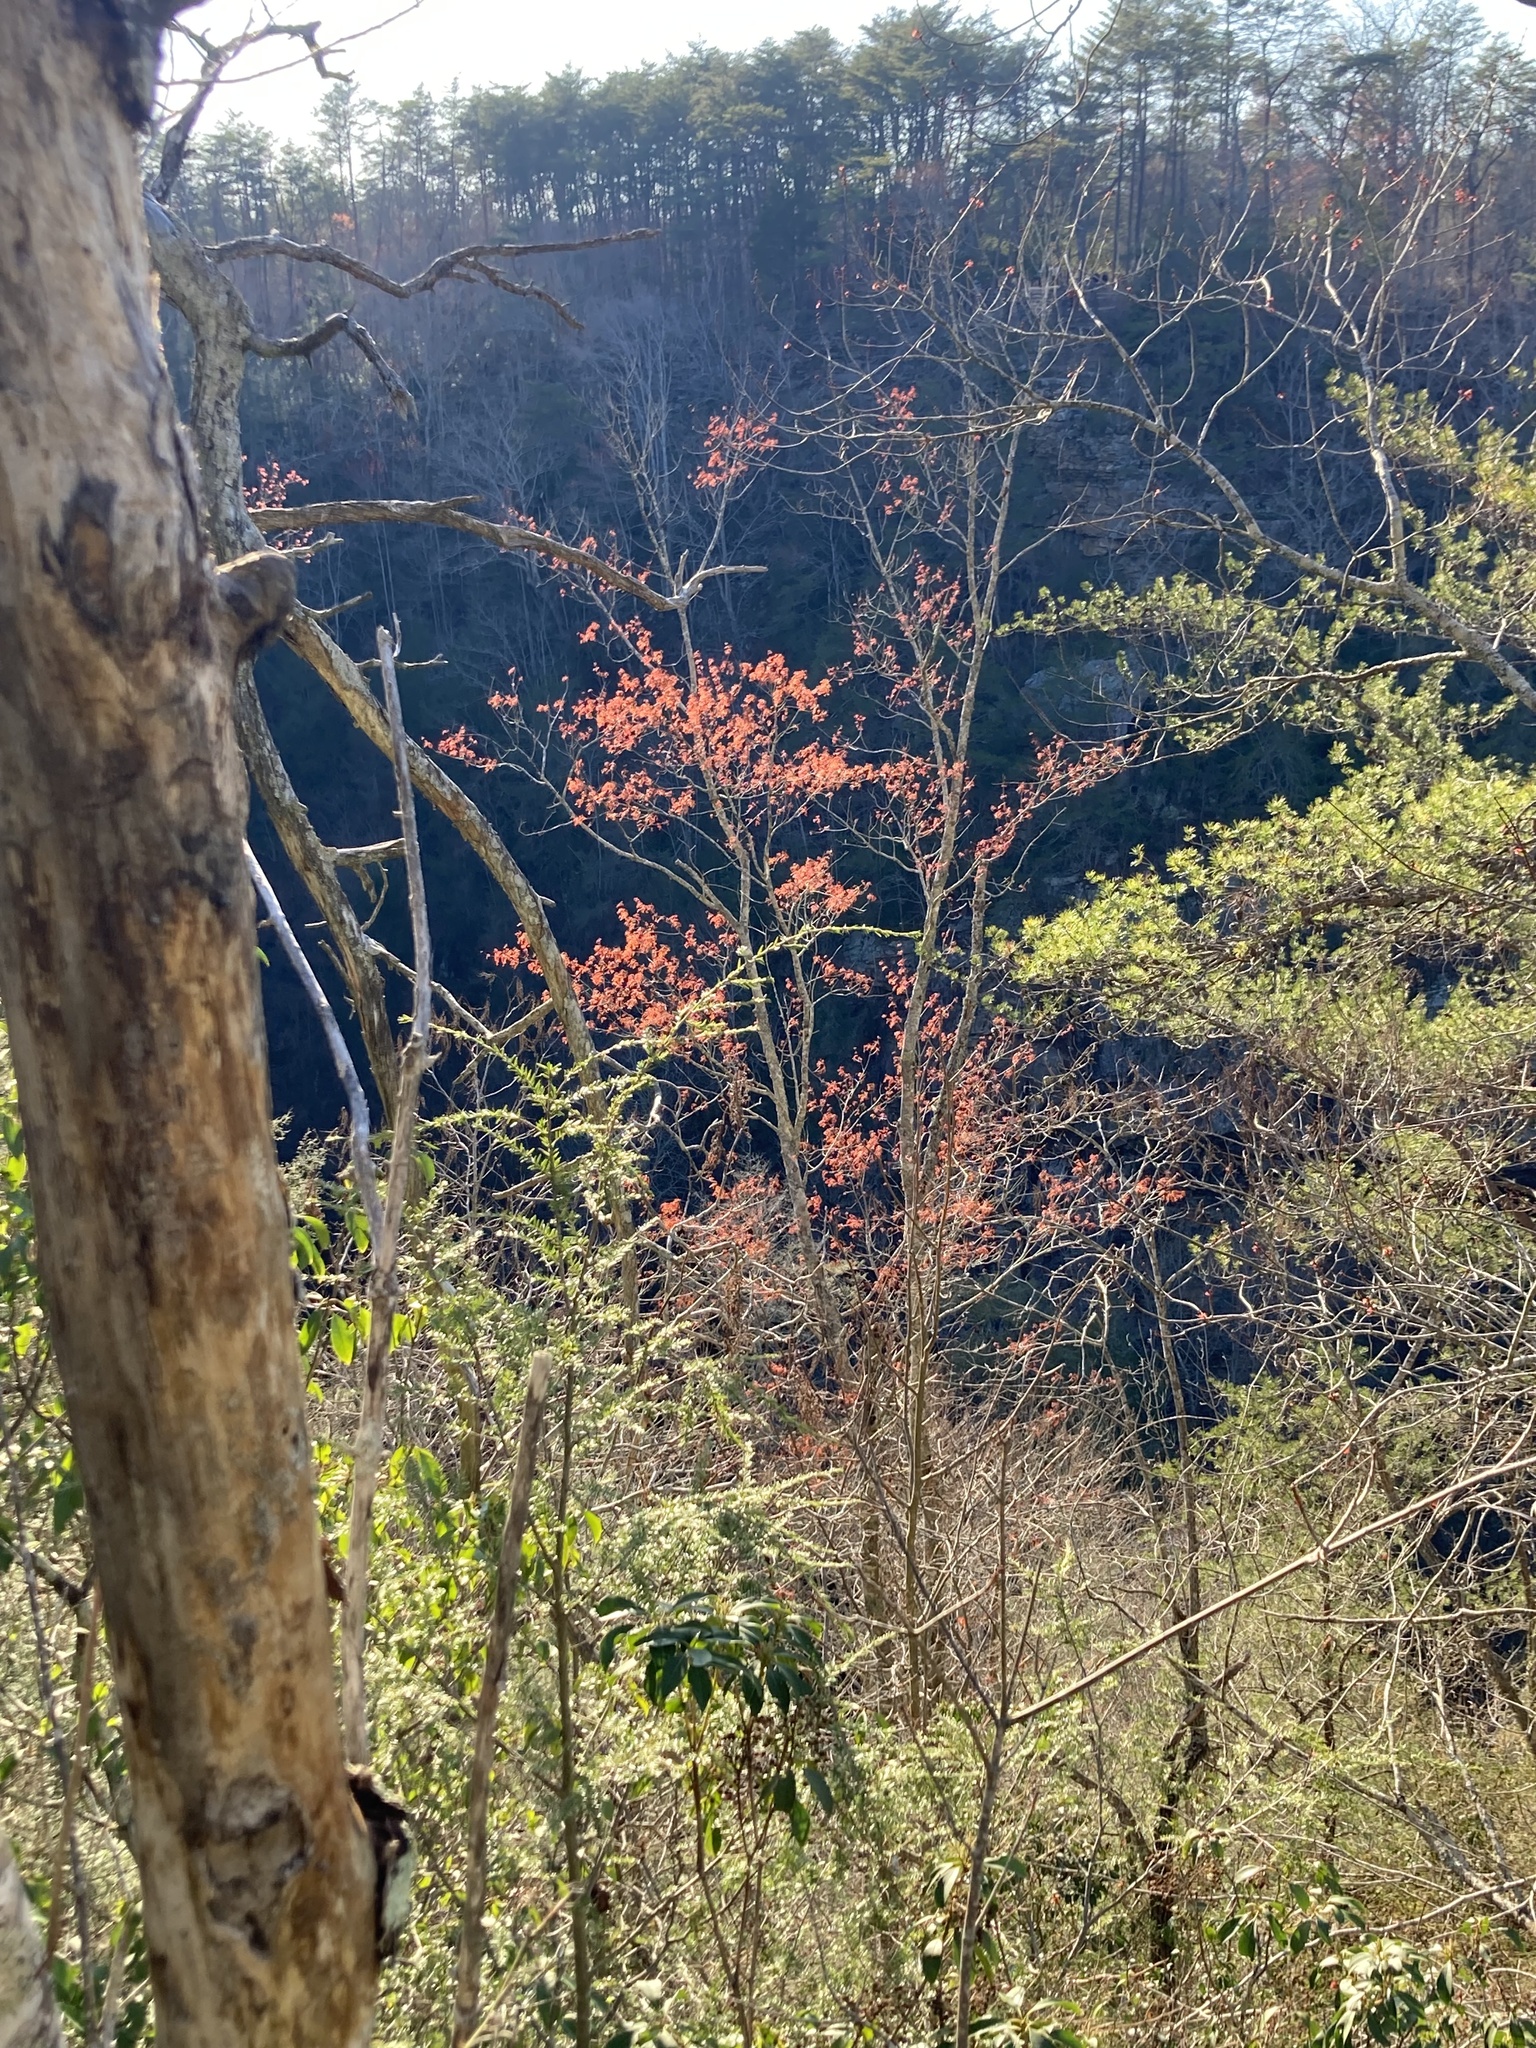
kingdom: Plantae
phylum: Tracheophyta
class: Magnoliopsida
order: Sapindales
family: Sapindaceae
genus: Acer
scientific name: Acer rubrum
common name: Red maple
